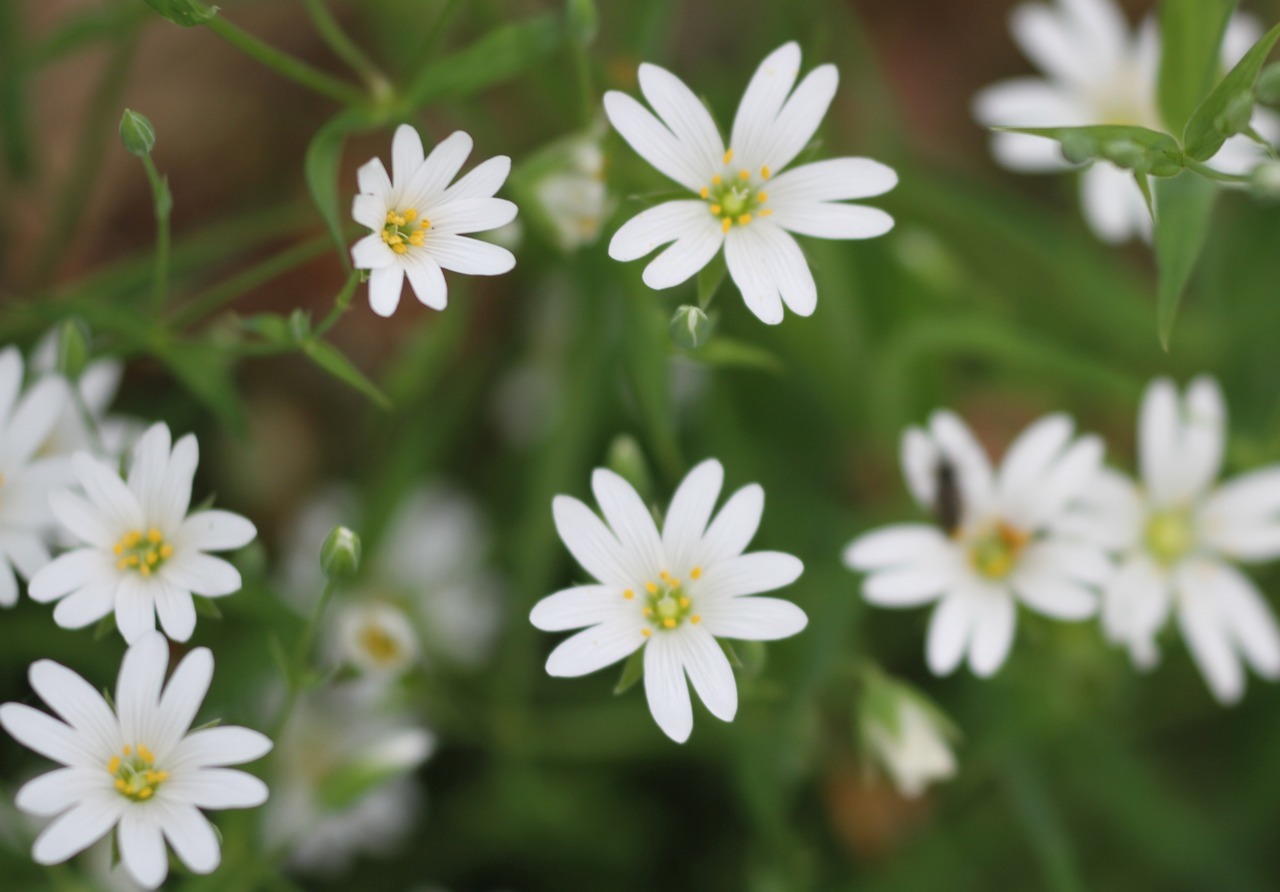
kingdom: Plantae
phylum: Tracheophyta
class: Magnoliopsida
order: Caryophyllales
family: Caryophyllaceae
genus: Rabelera
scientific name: Rabelera holostea
